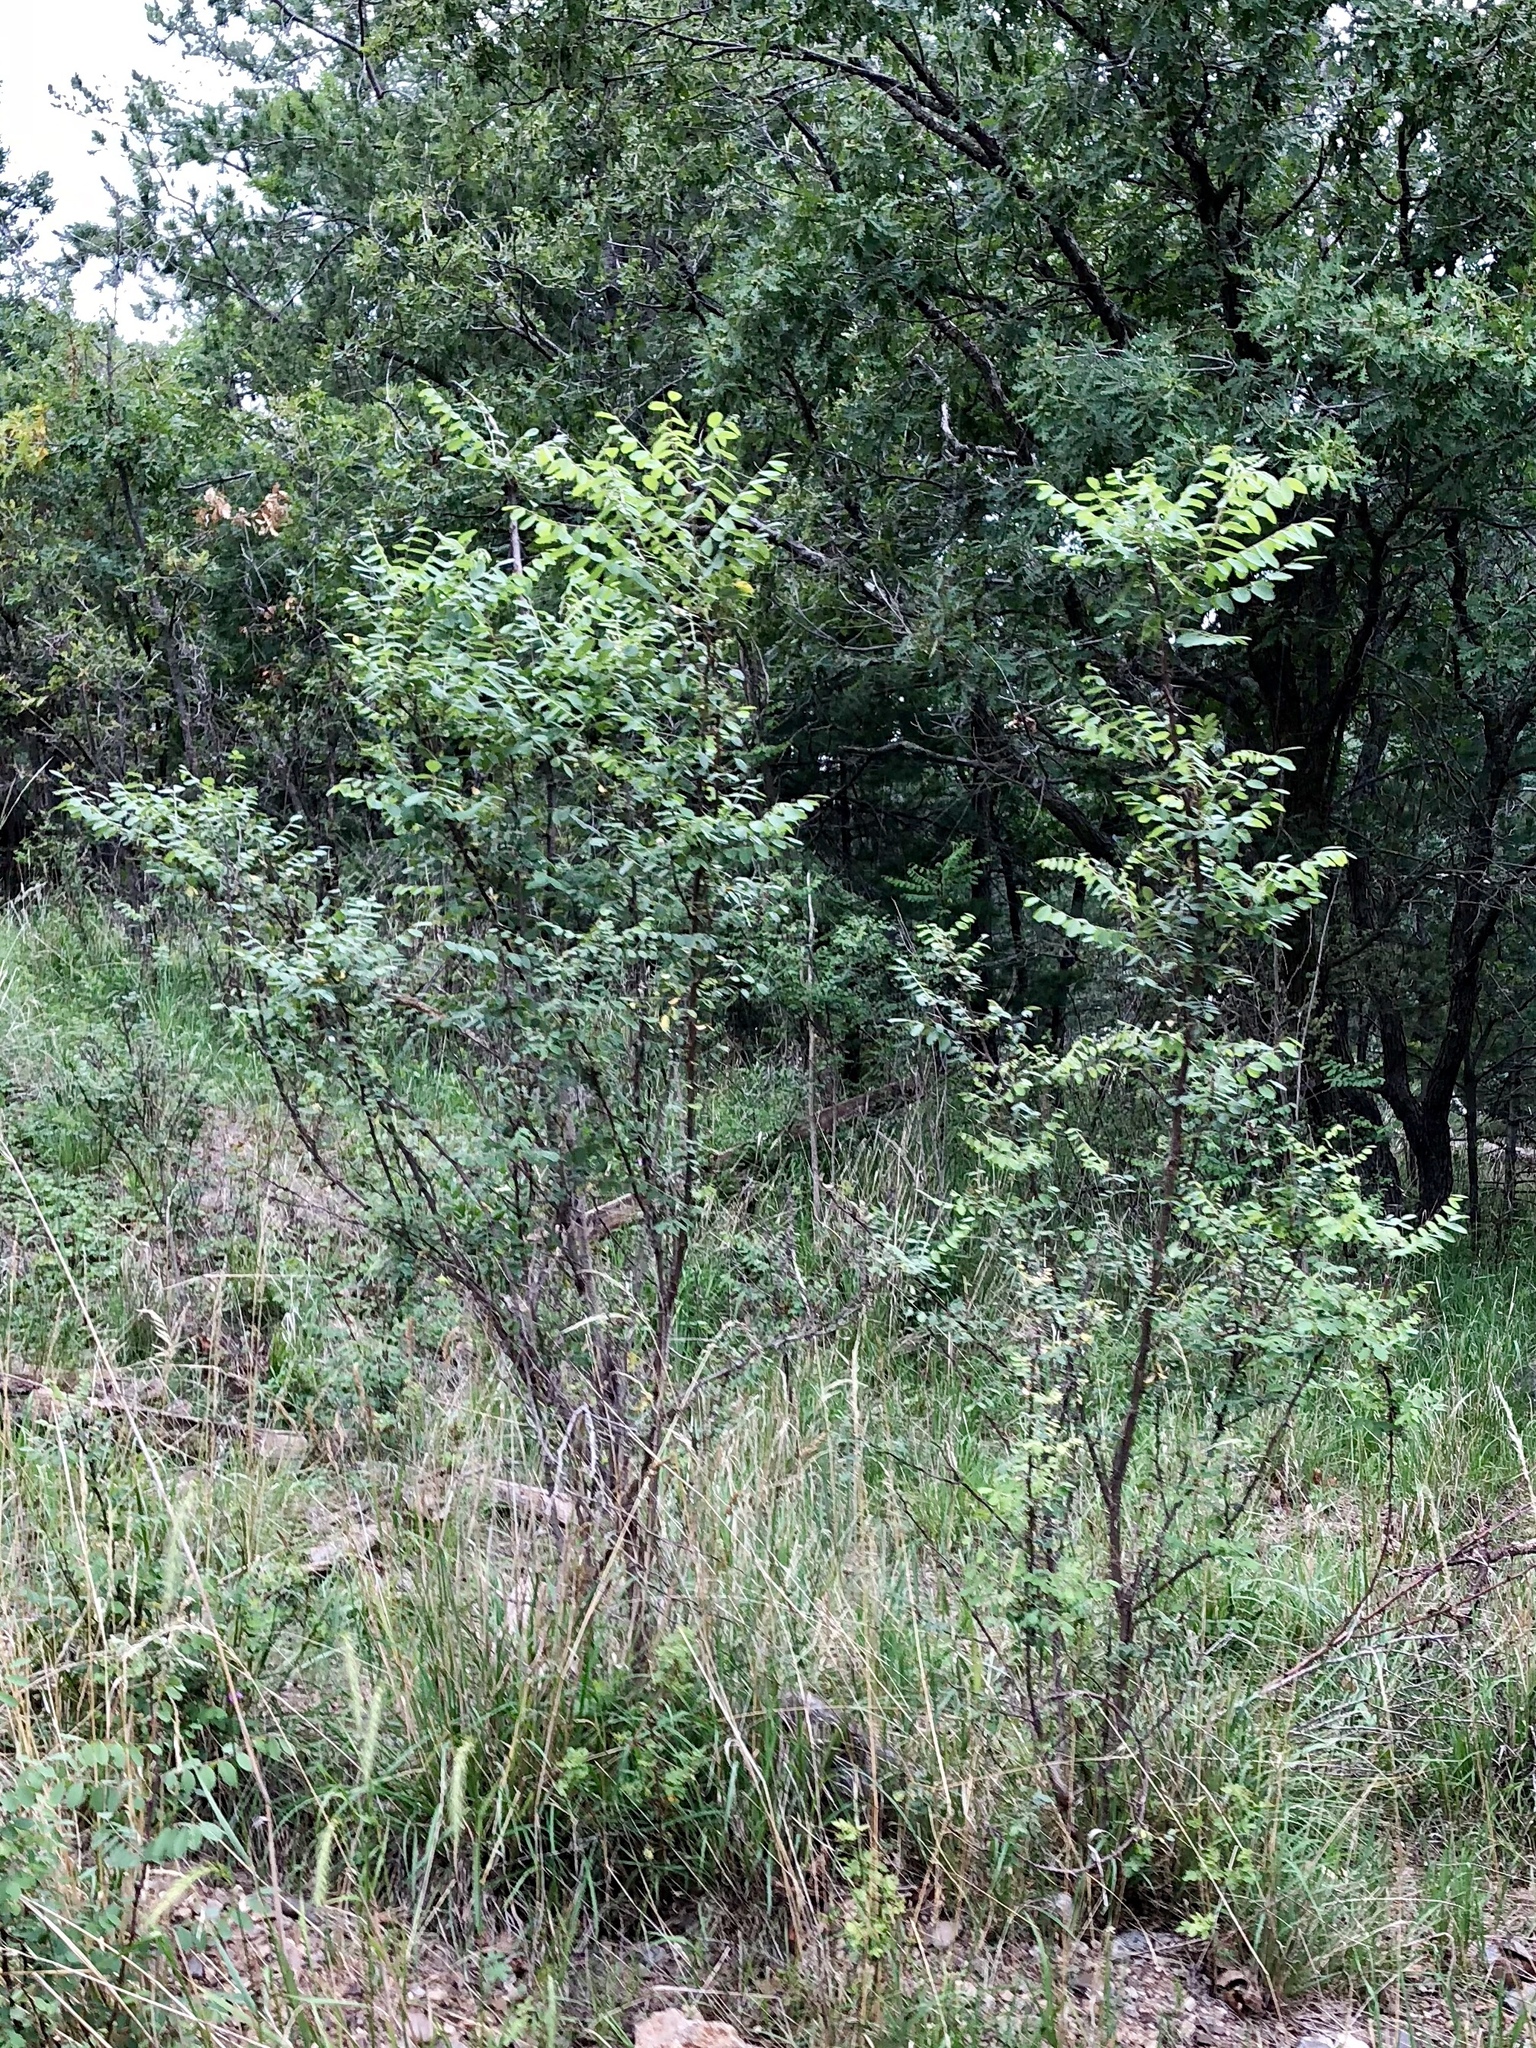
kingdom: Plantae
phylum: Tracheophyta
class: Magnoliopsida
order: Fabales
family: Fabaceae
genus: Robinia
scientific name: Robinia neomexicana
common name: New mexico locust
